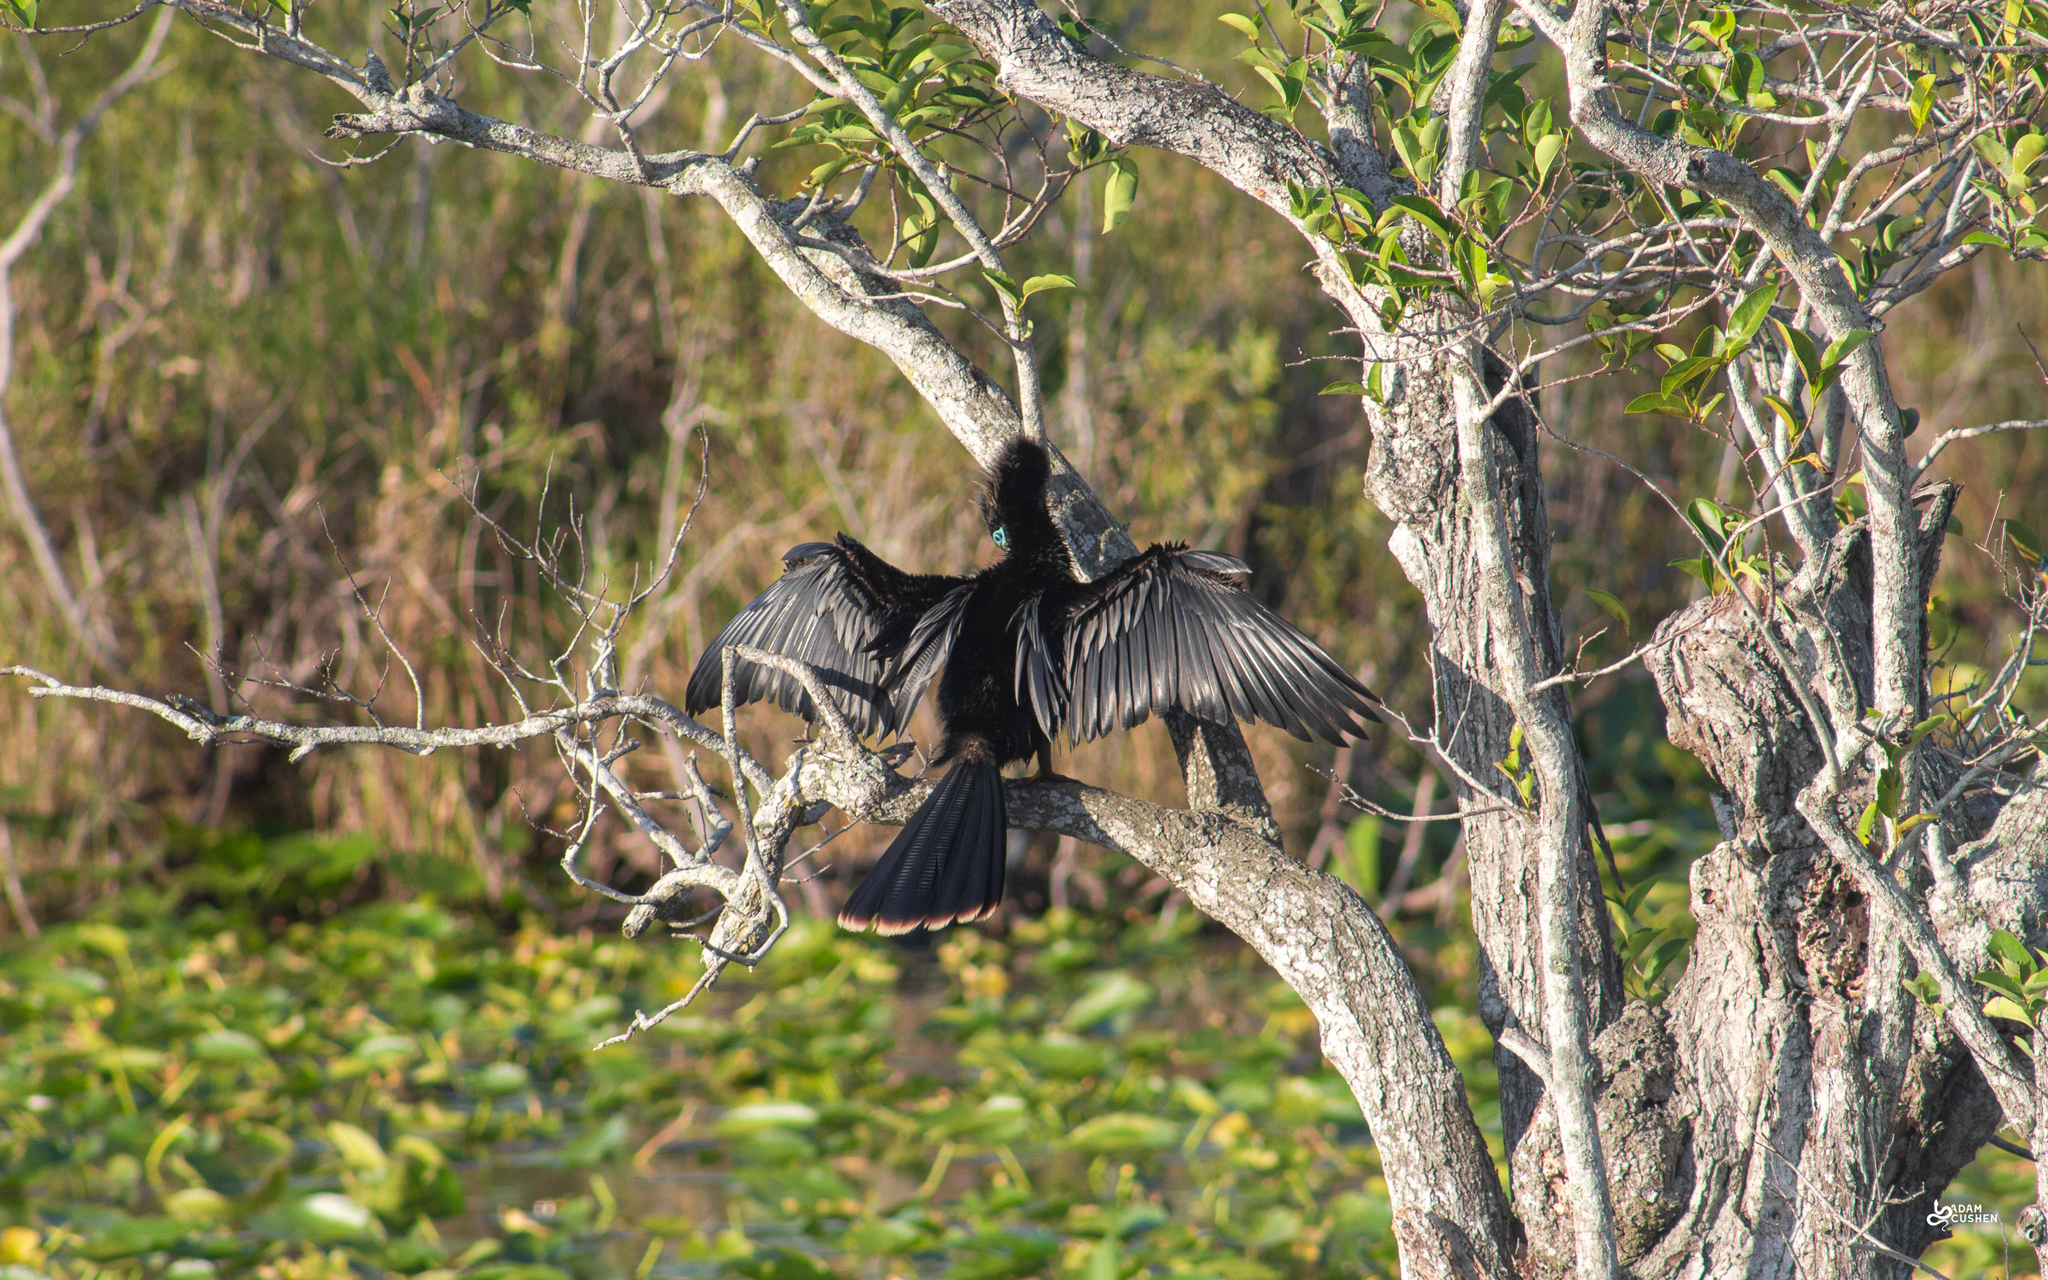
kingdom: Animalia
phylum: Chordata
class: Aves
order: Suliformes
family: Anhingidae
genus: Anhinga
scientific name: Anhinga anhinga
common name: Anhinga
